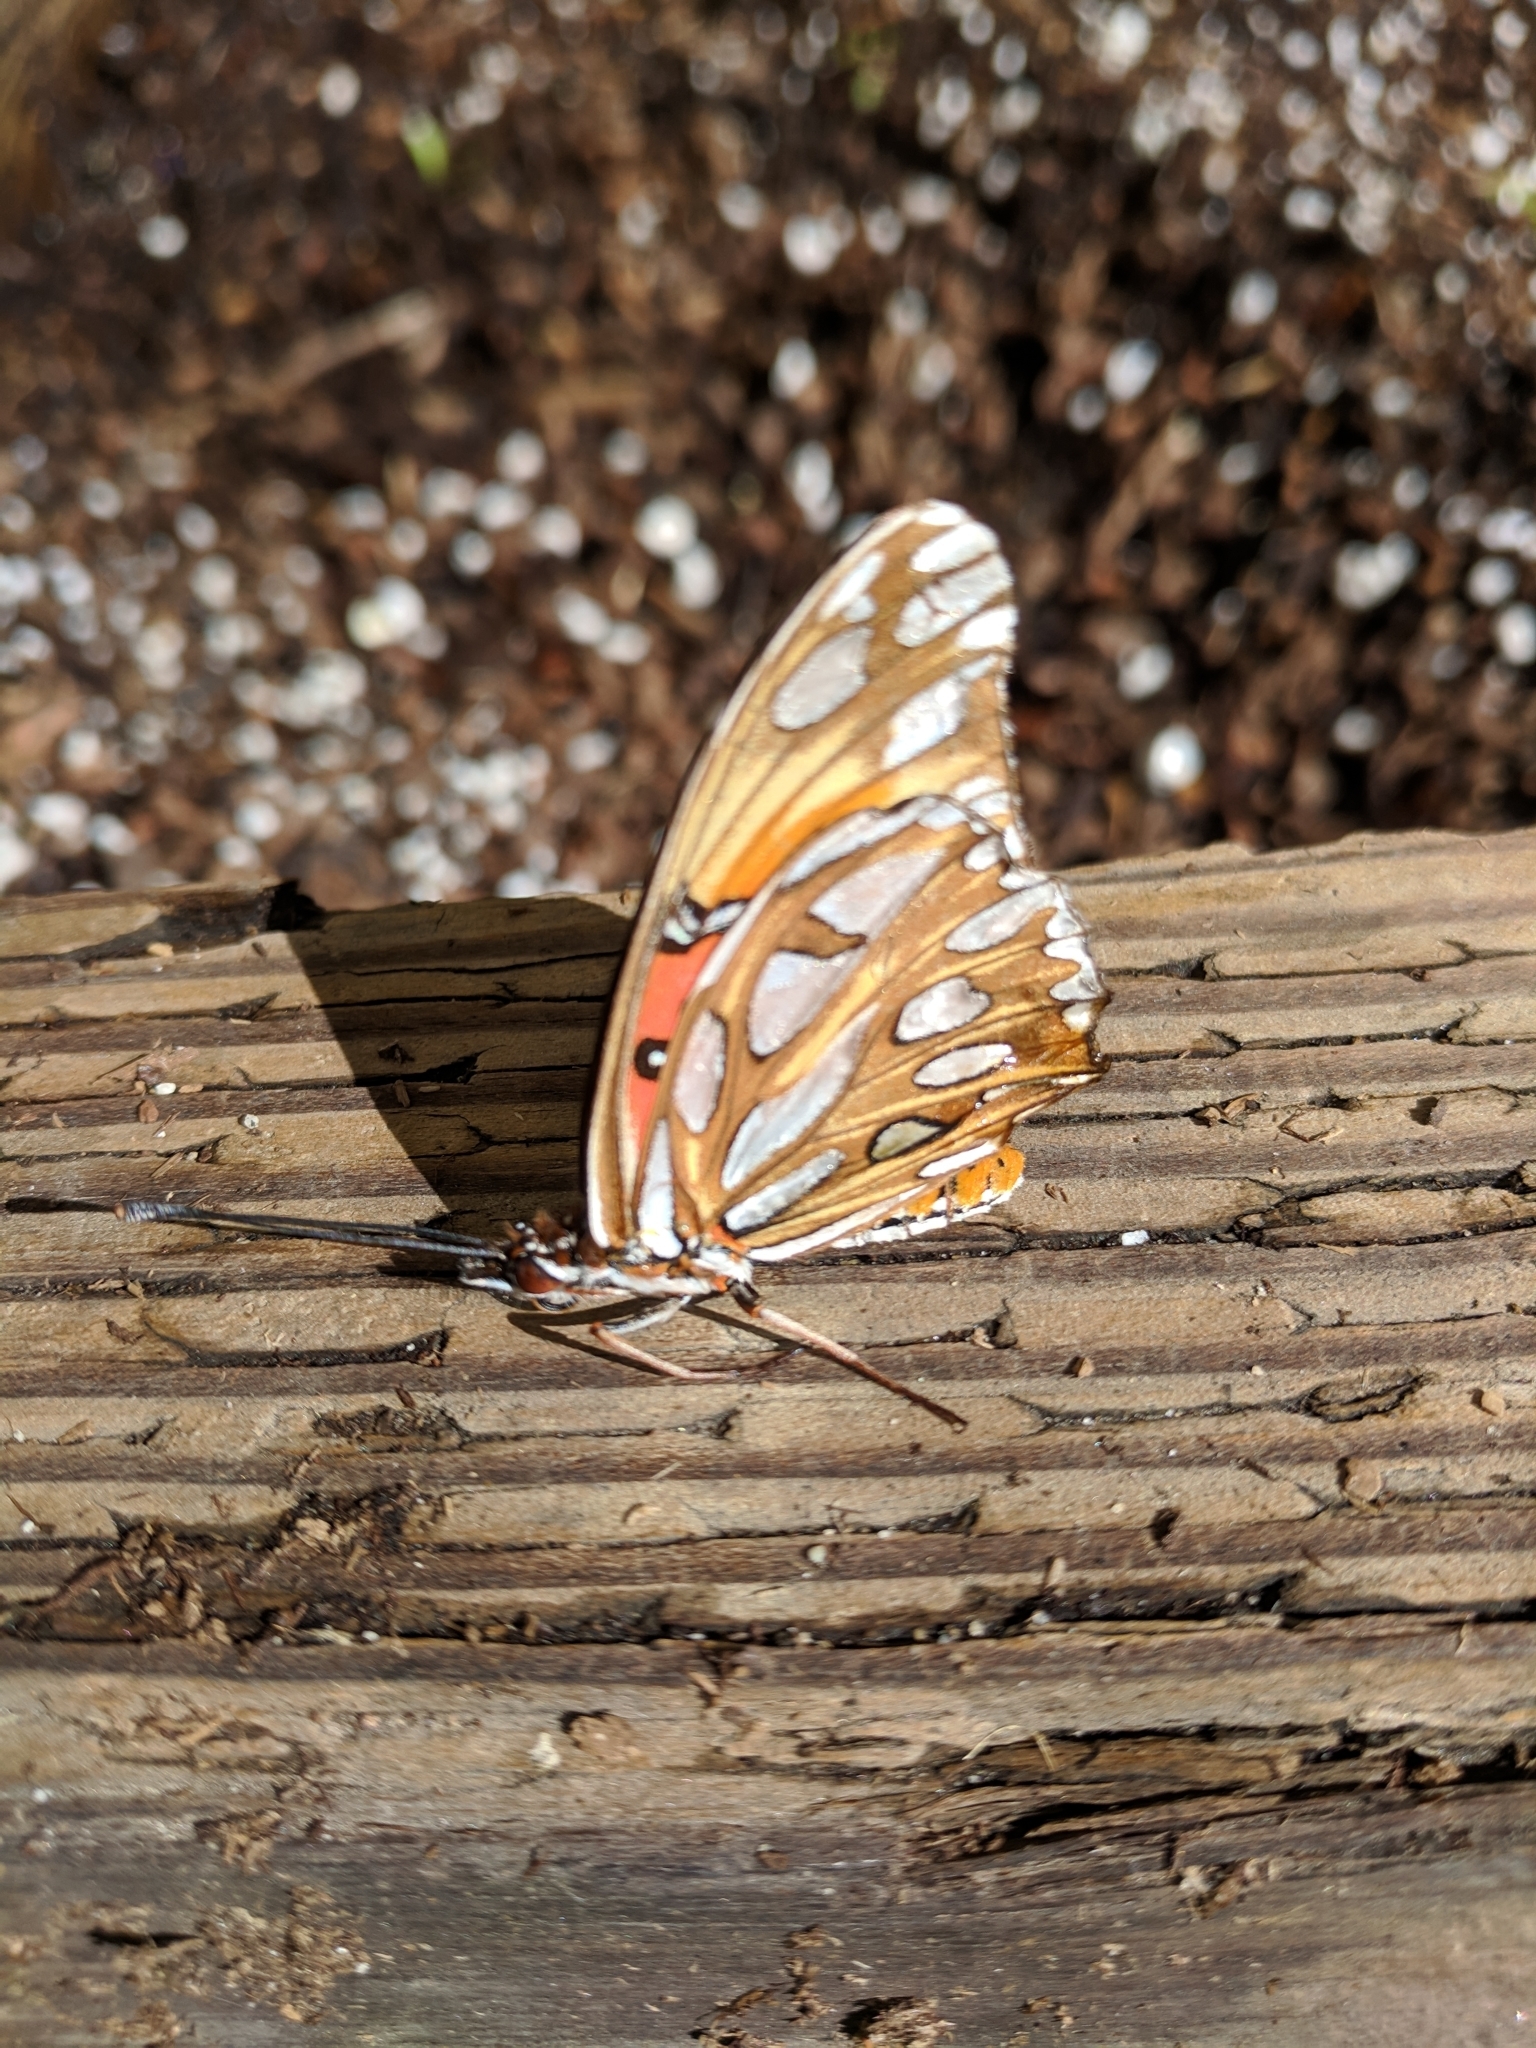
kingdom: Animalia
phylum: Arthropoda
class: Insecta
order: Lepidoptera
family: Nymphalidae
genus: Dione
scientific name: Dione vanillae
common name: Gulf fritillary
